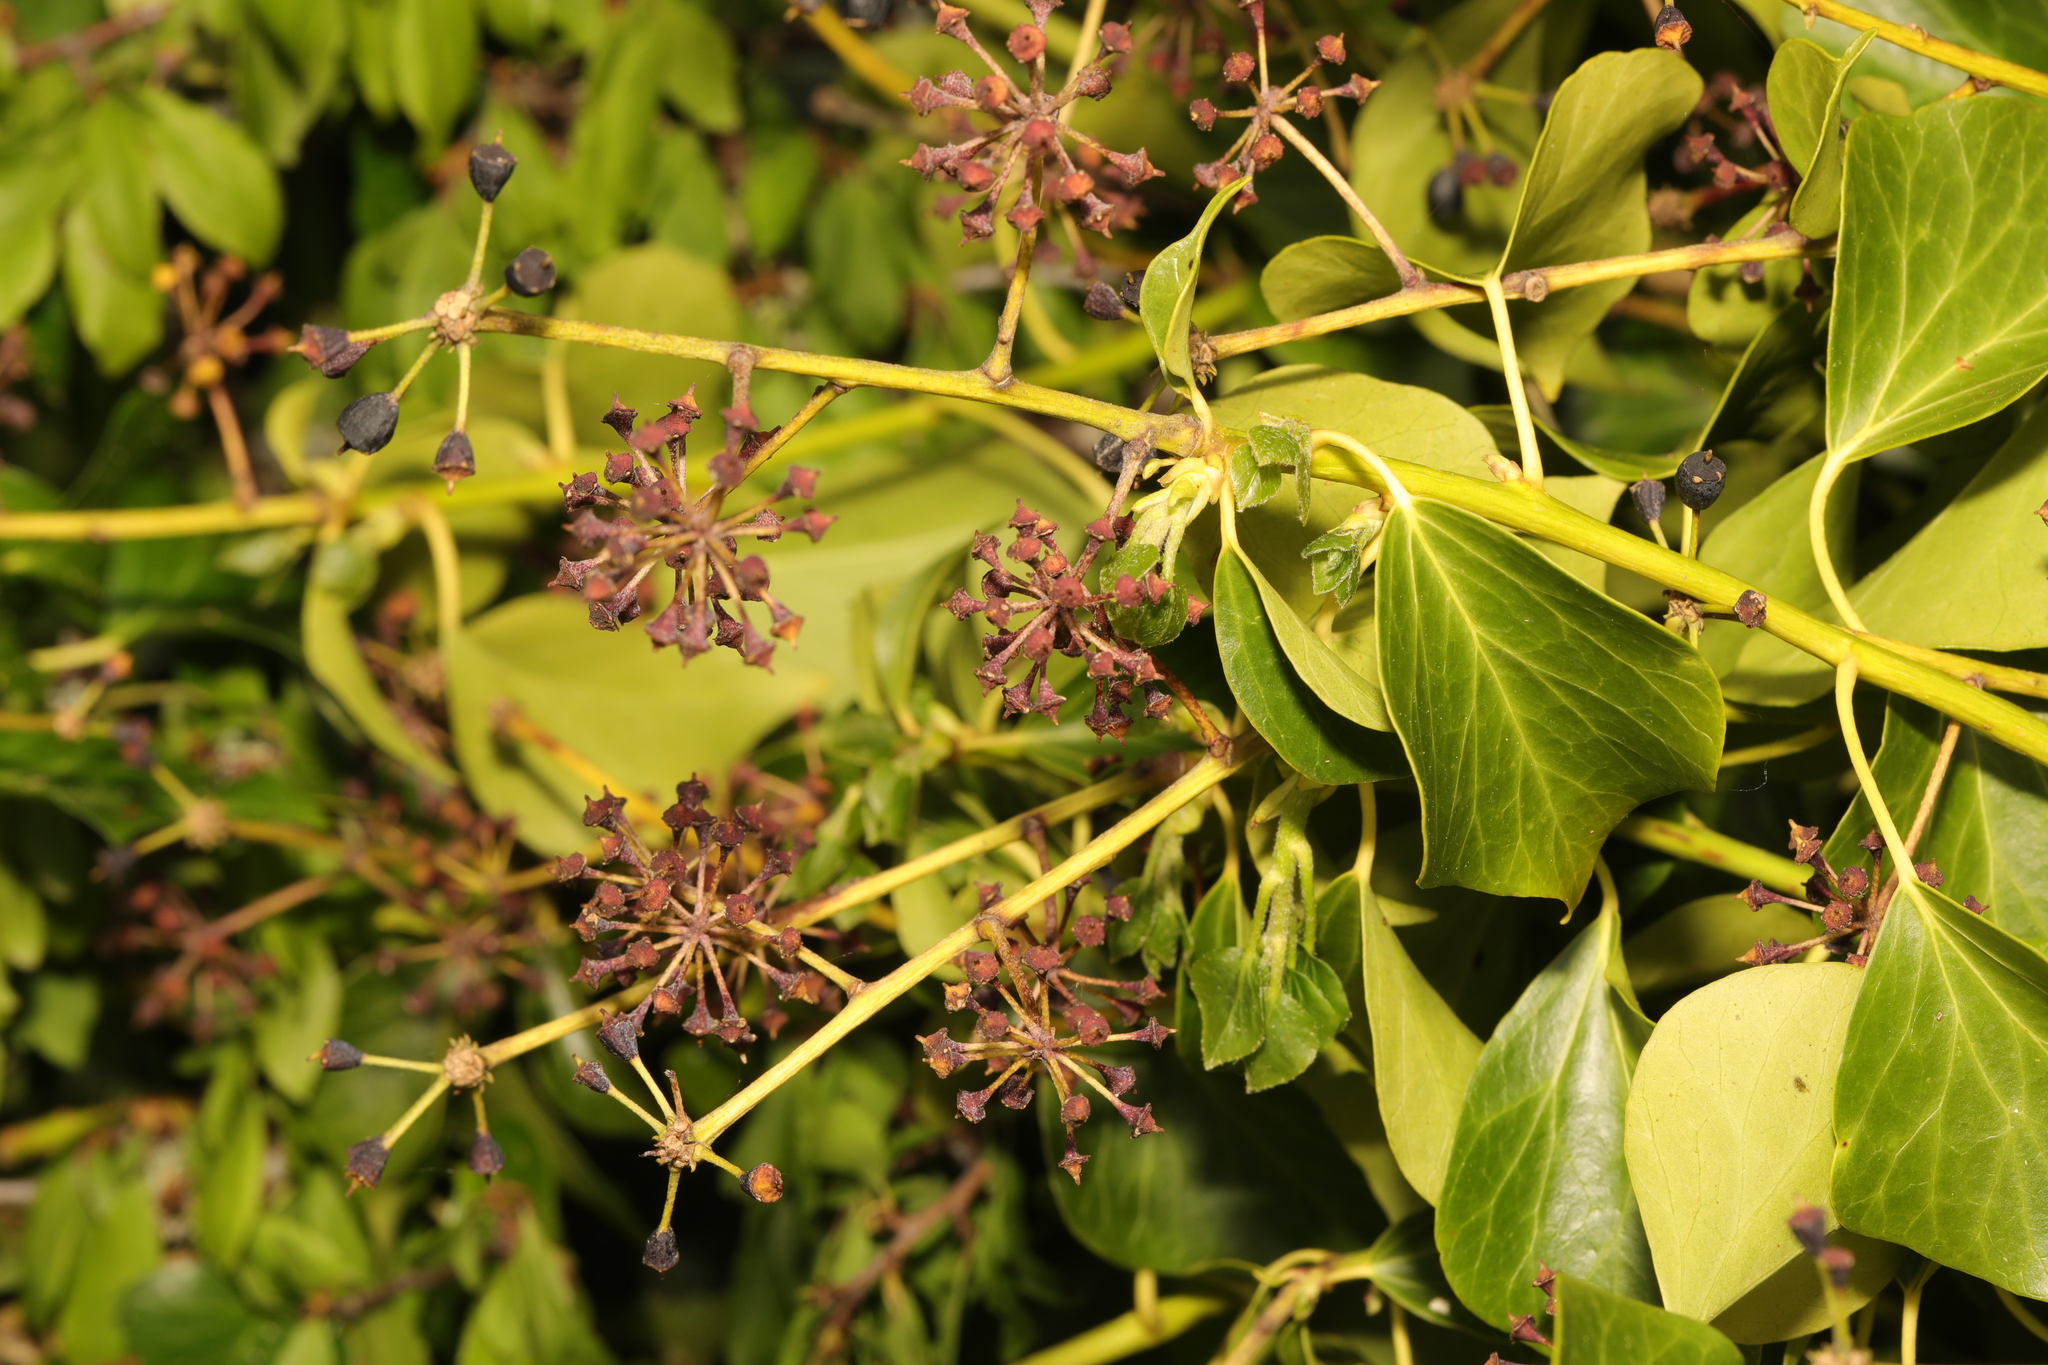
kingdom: Plantae
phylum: Tracheophyta
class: Magnoliopsida
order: Apiales
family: Araliaceae
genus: Hedera
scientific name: Hedera helix
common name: Ivy
